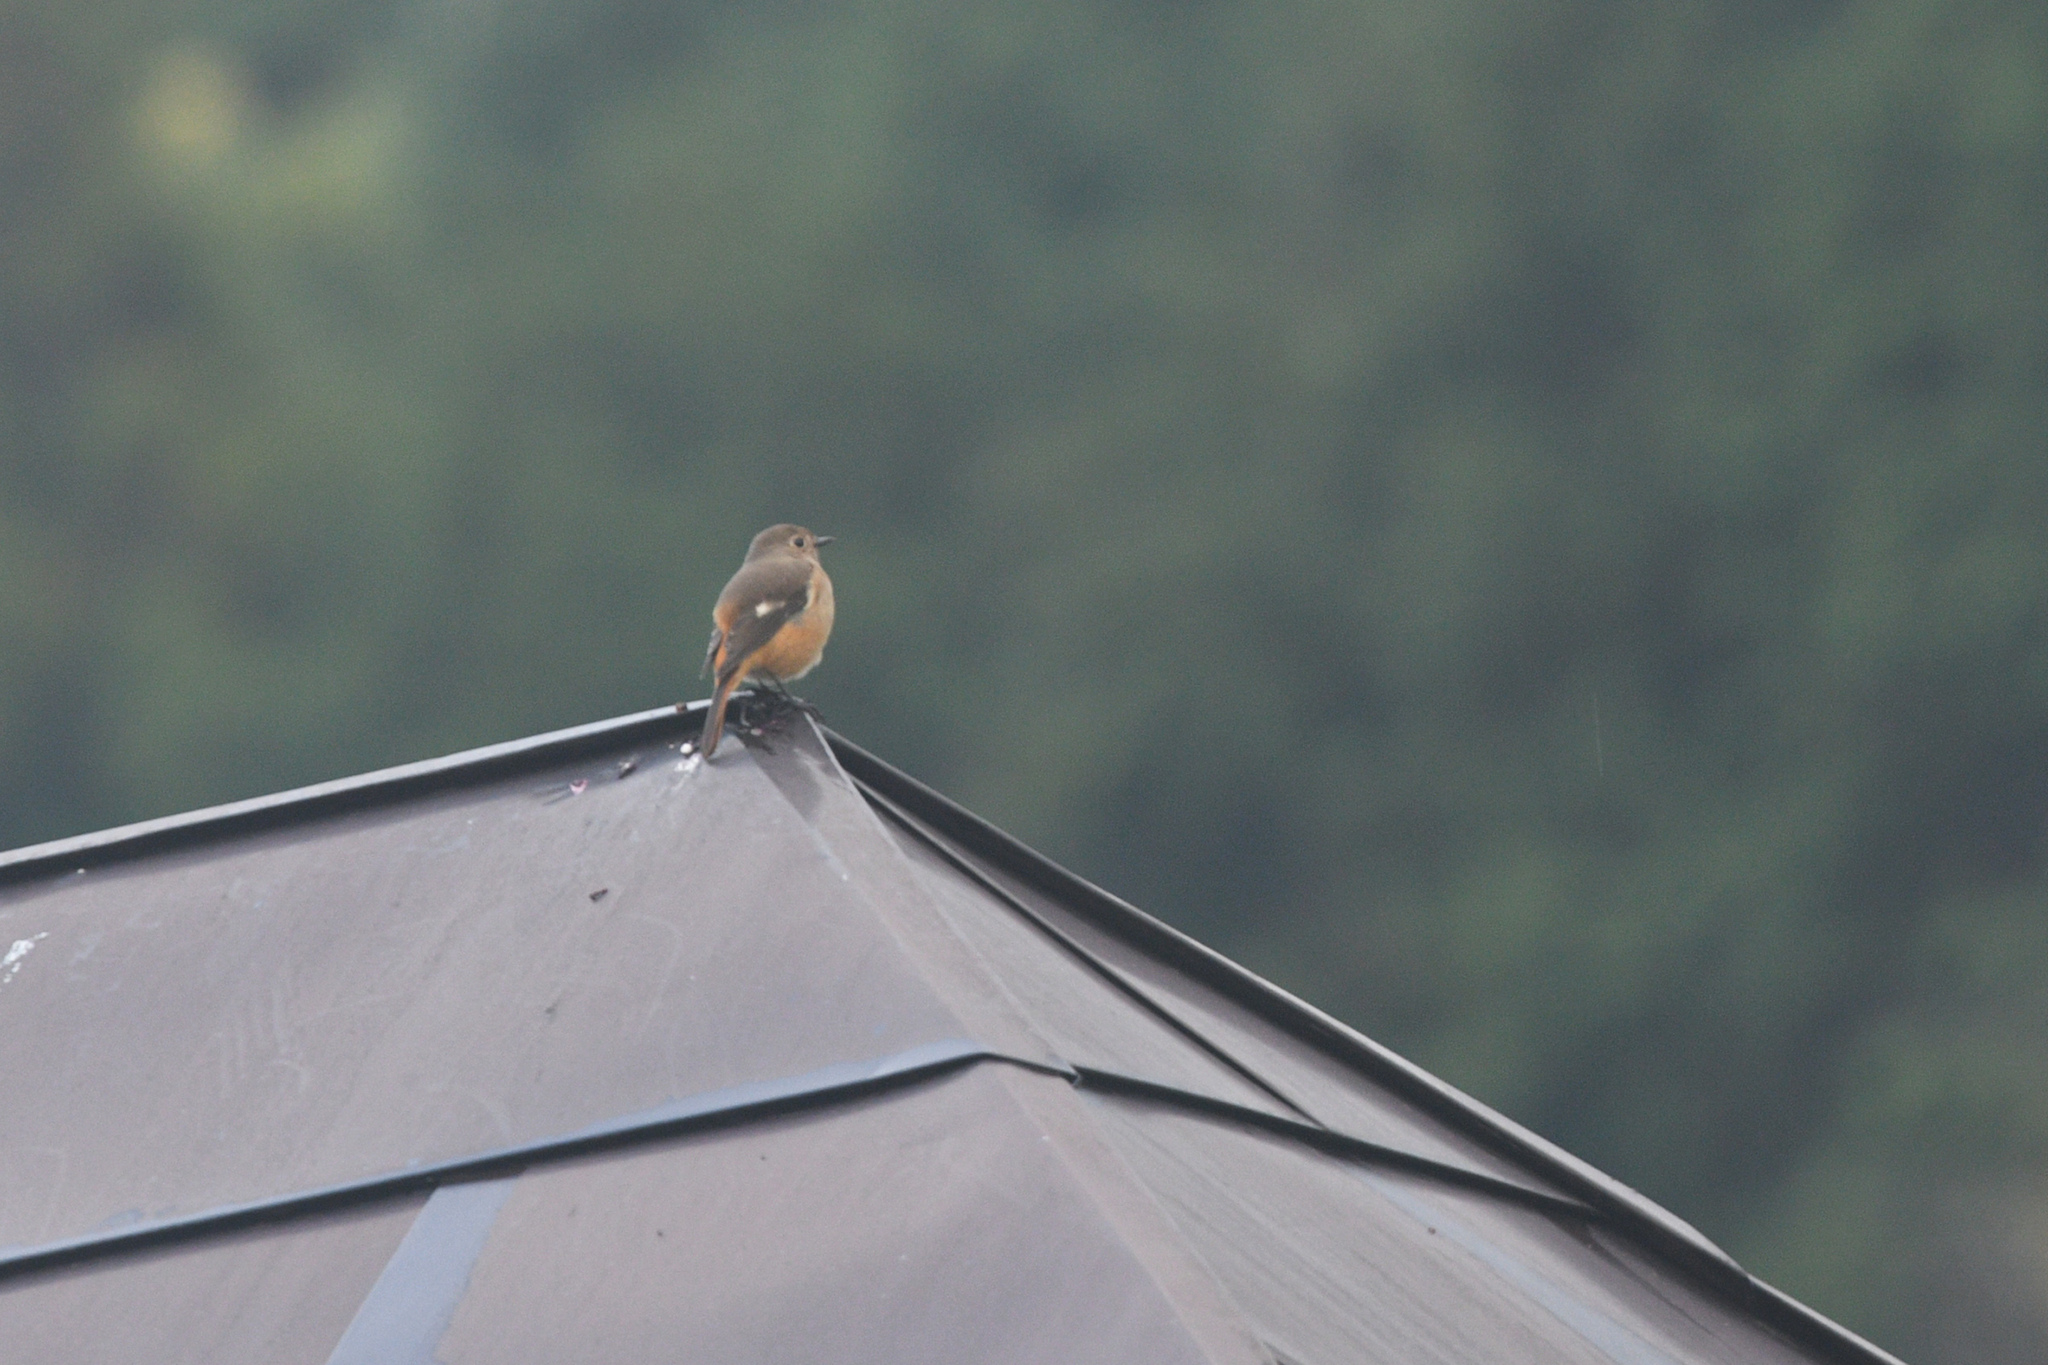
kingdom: Animalia
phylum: Chordata
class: Aves
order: Passeriformes
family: Muscicapidae
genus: Phoenicurus
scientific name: Phoenicurus auroreus
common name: Daurian redstart
